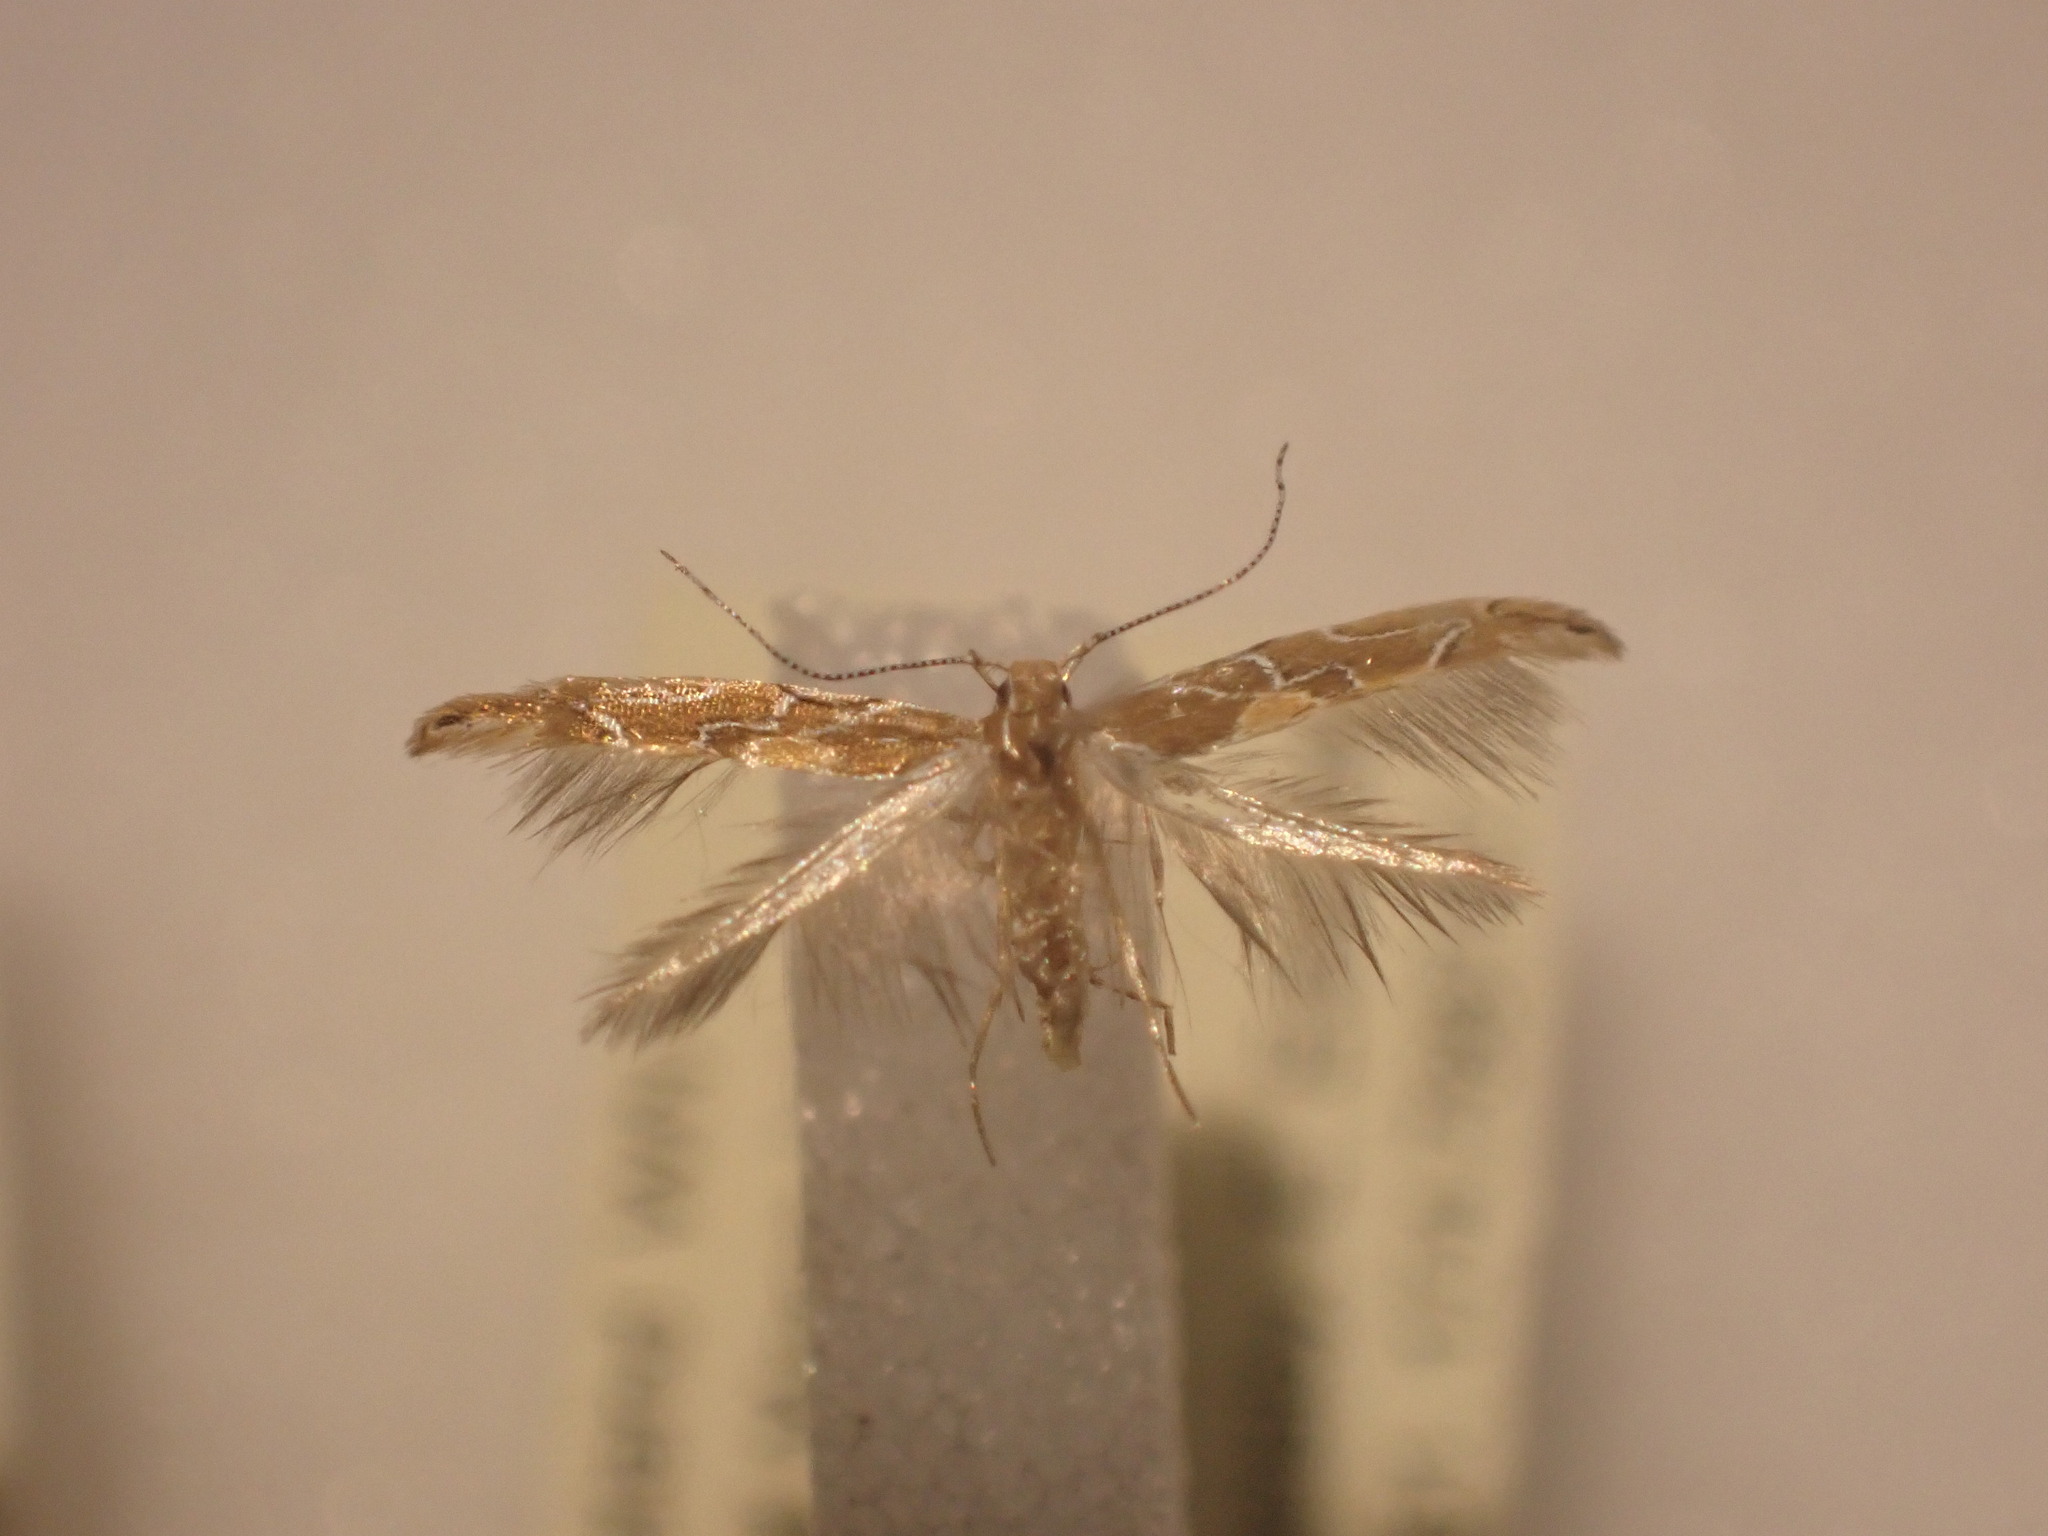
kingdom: Animalia
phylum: Arthropoda
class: Insecta
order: Lepidoptera
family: Cosmopterigidae
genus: Pyroderces
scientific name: Pyroderces apparitella
